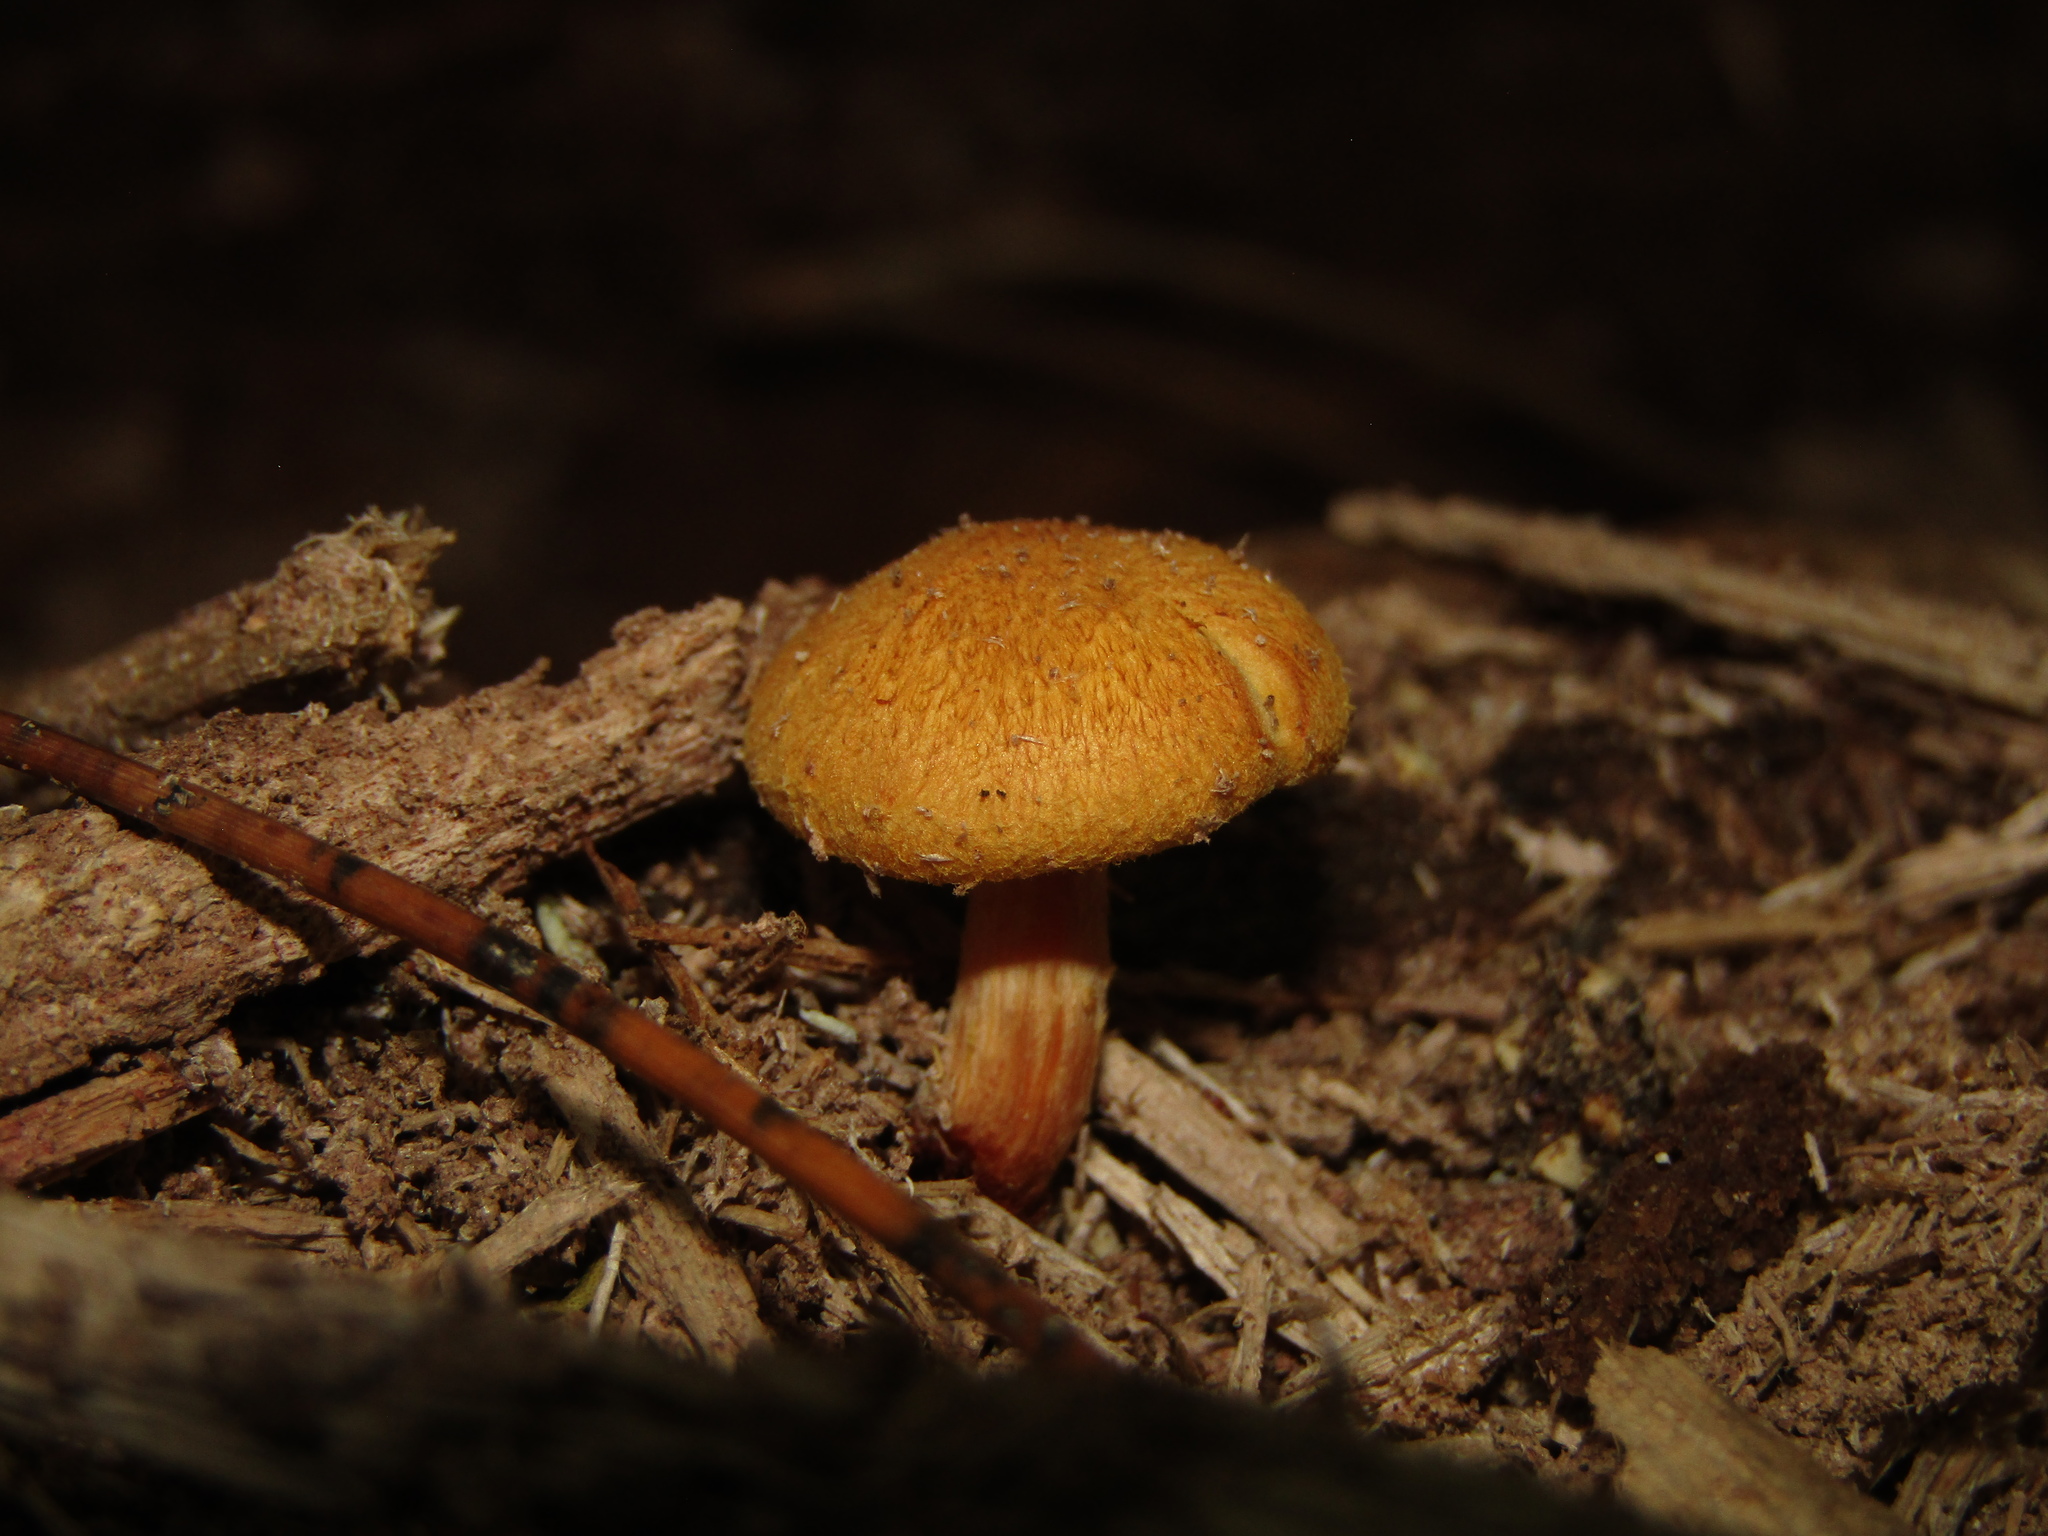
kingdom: Fungi
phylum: Basidiomycota
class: Agaricomycetes
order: Agaricales
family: Hymenogastraceae
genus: Gymnopilus
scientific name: Gymnopilus purpuratus
